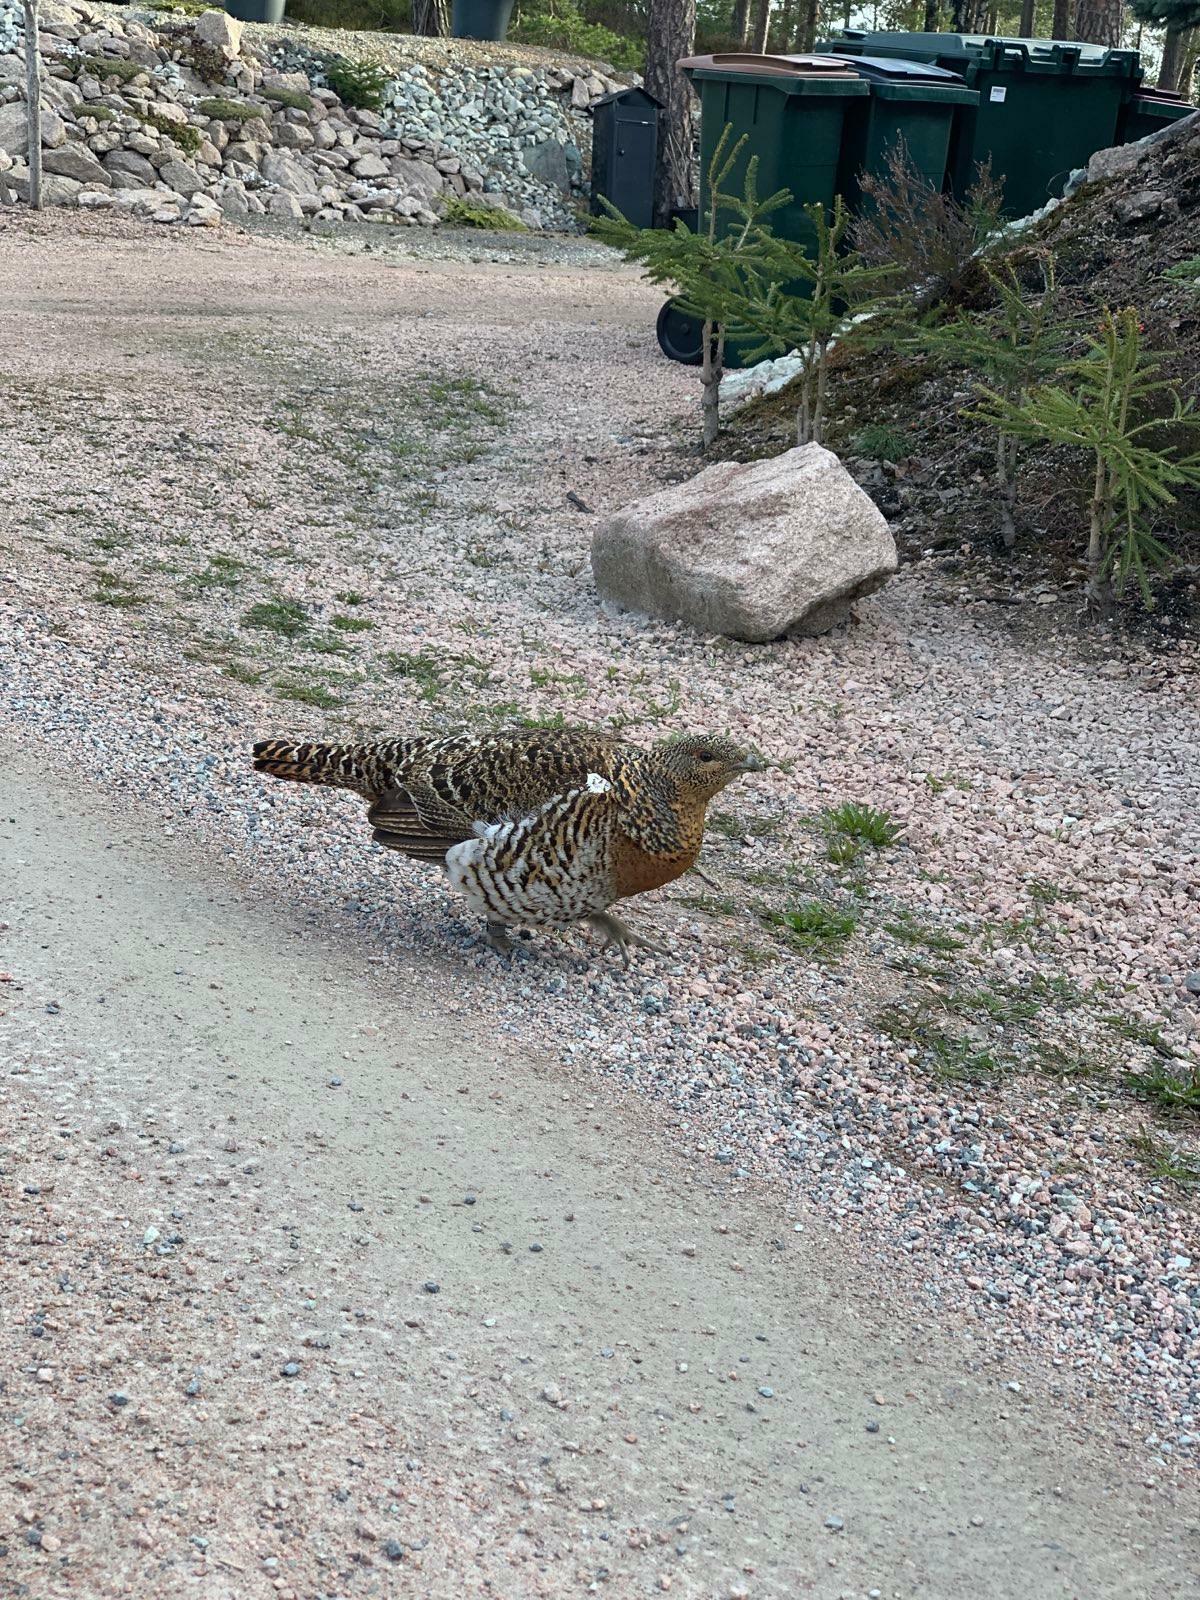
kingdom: Animalia
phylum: Chordata
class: Aves
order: Galliformes
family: Phasianidae
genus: Tetrao
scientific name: Tetrao urogallus
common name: Western capercaillie
